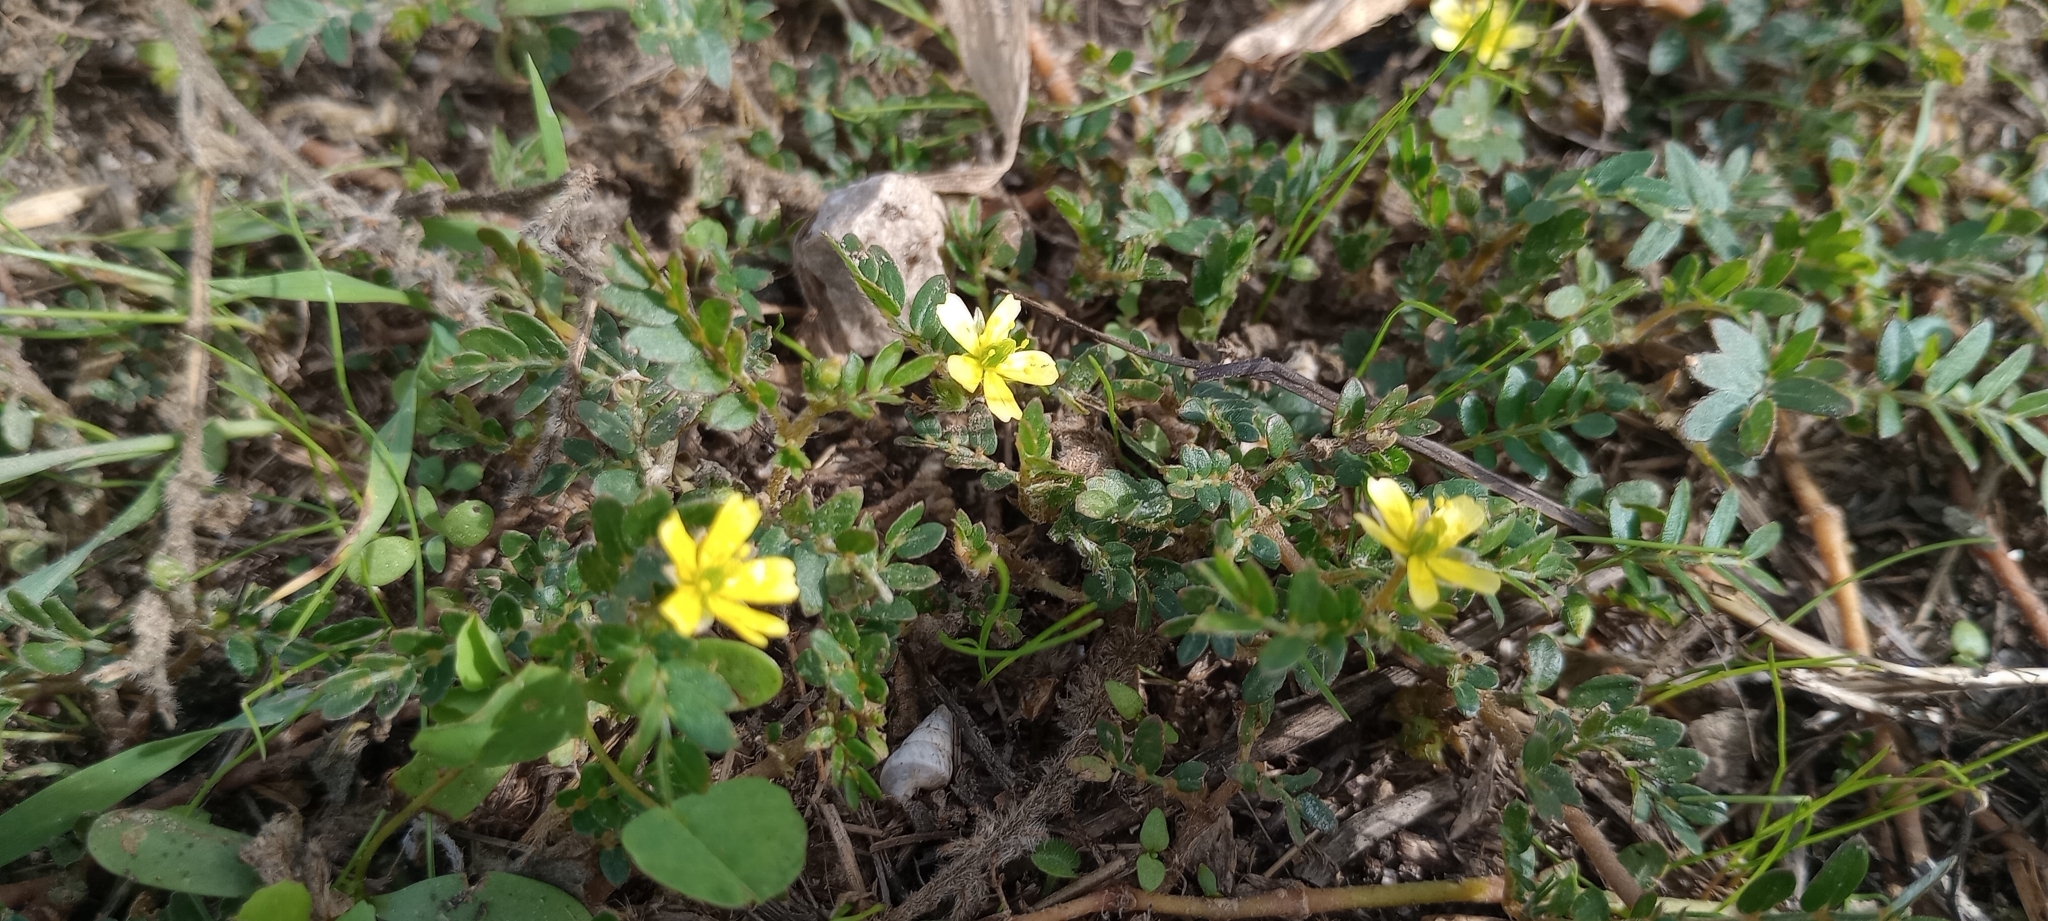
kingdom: Plantae
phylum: Tracheophyta
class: Magnoliopsida
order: Zygophyllales
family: Zygophyllaceae
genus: Tribulus
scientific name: Tribulus terrestris
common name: Puncturevine
